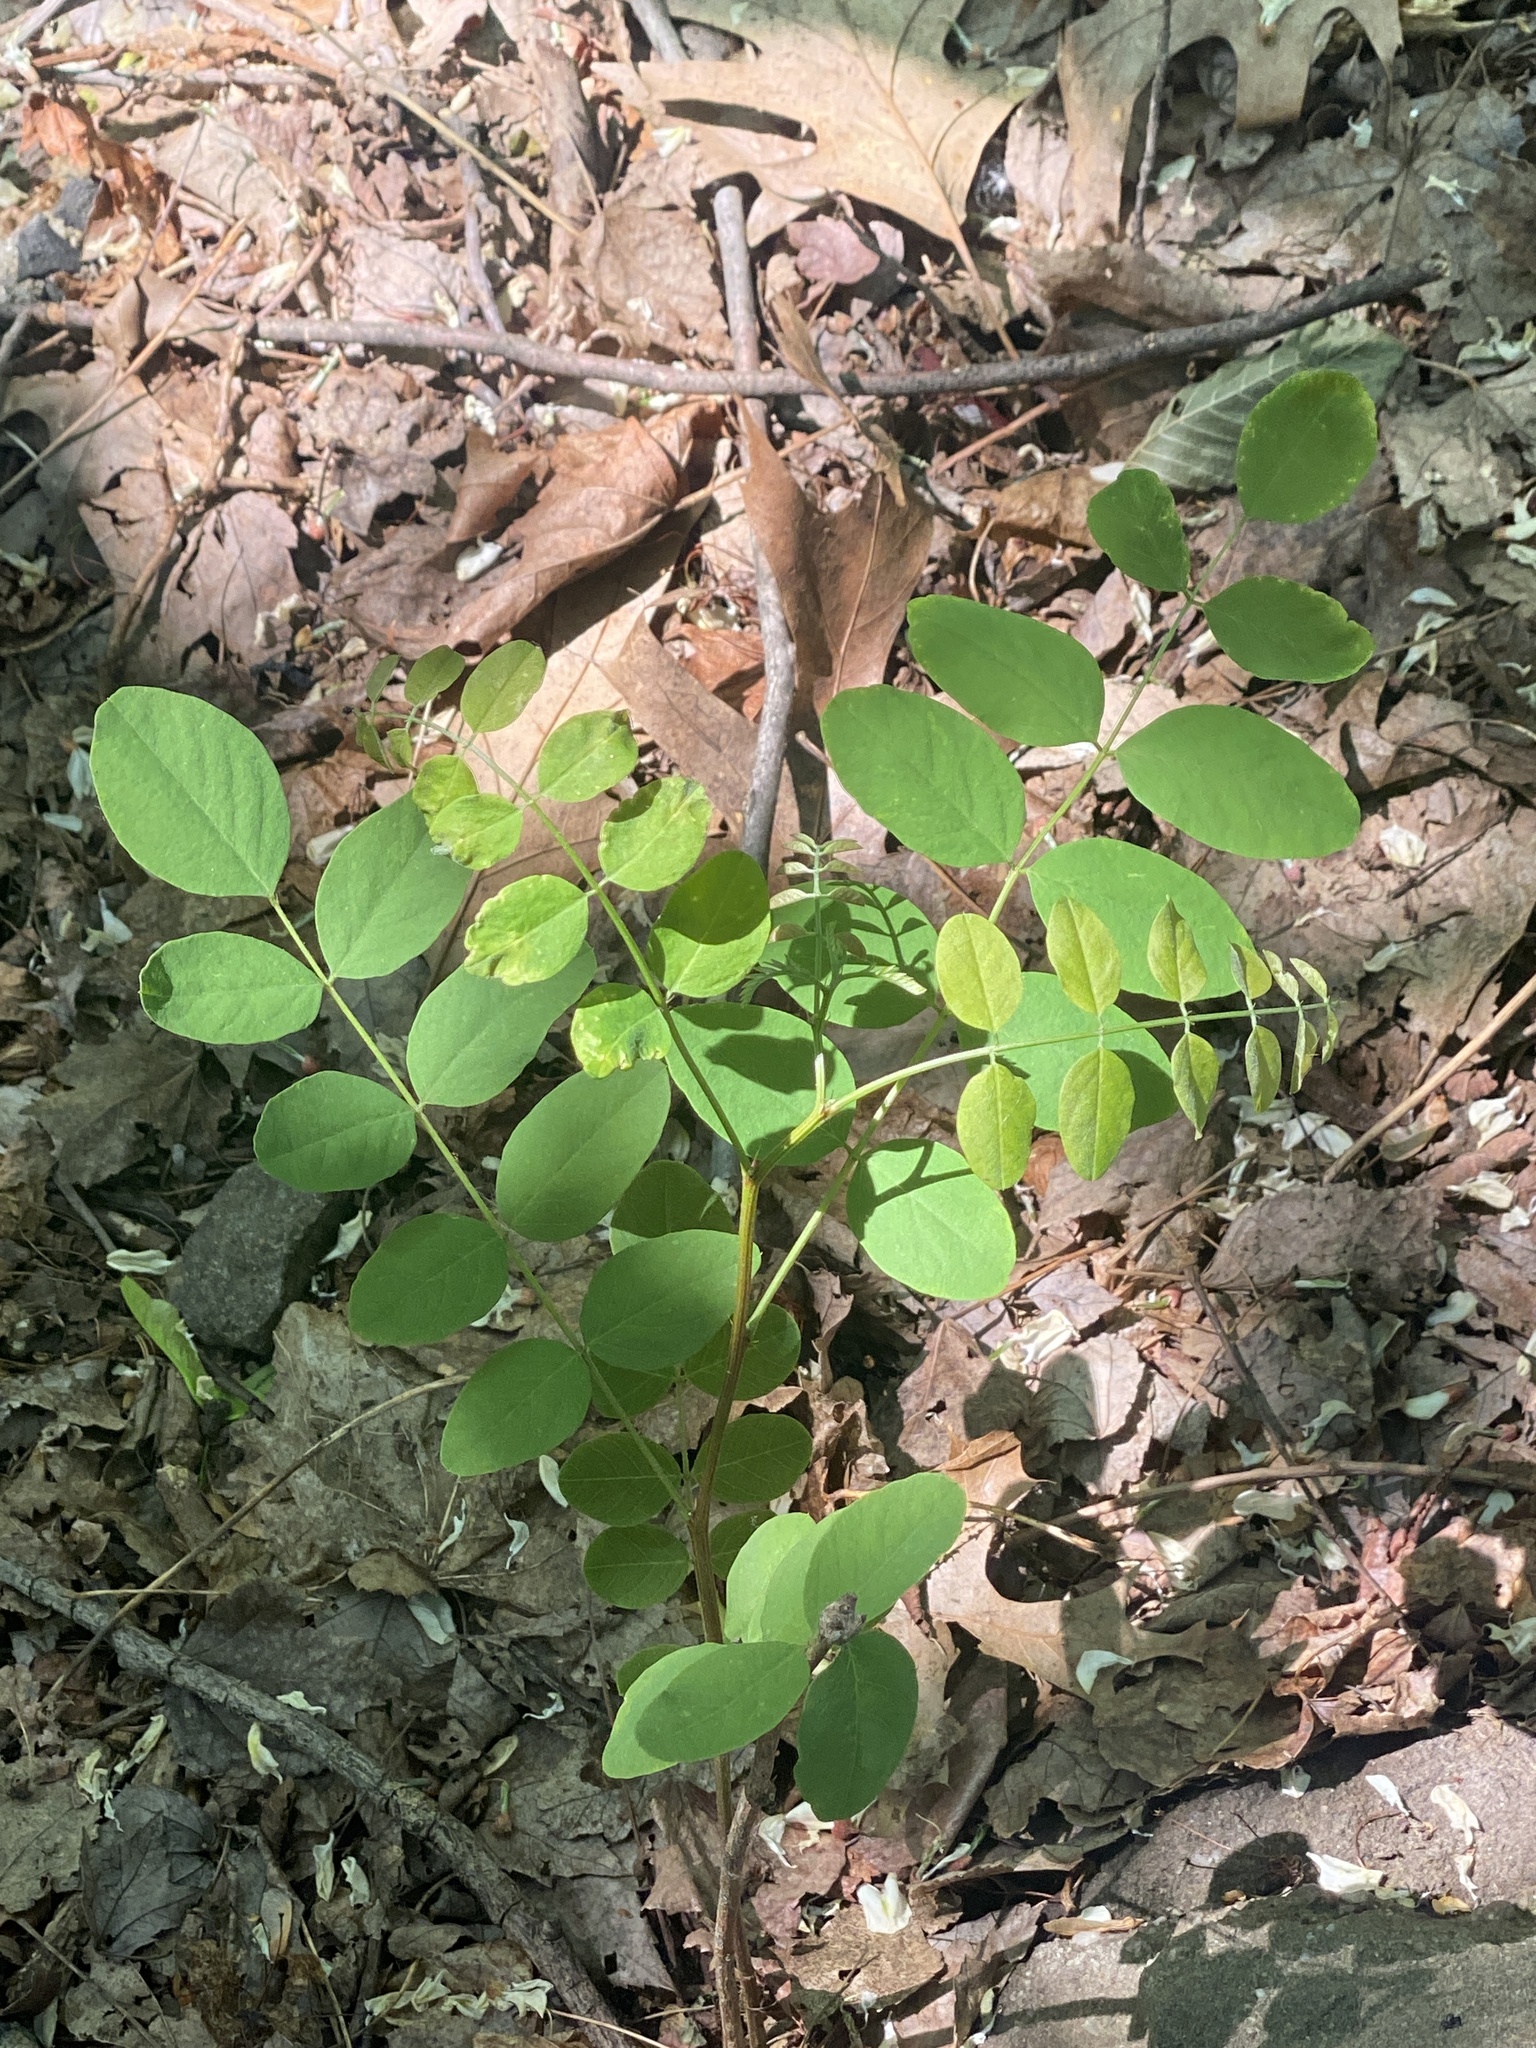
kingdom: Plantae
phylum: Tracheophyta
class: Magnoliopsida
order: Fabales
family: Fabaceae
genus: Robinia
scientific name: Robinia pseudoacacia
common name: Black locust
